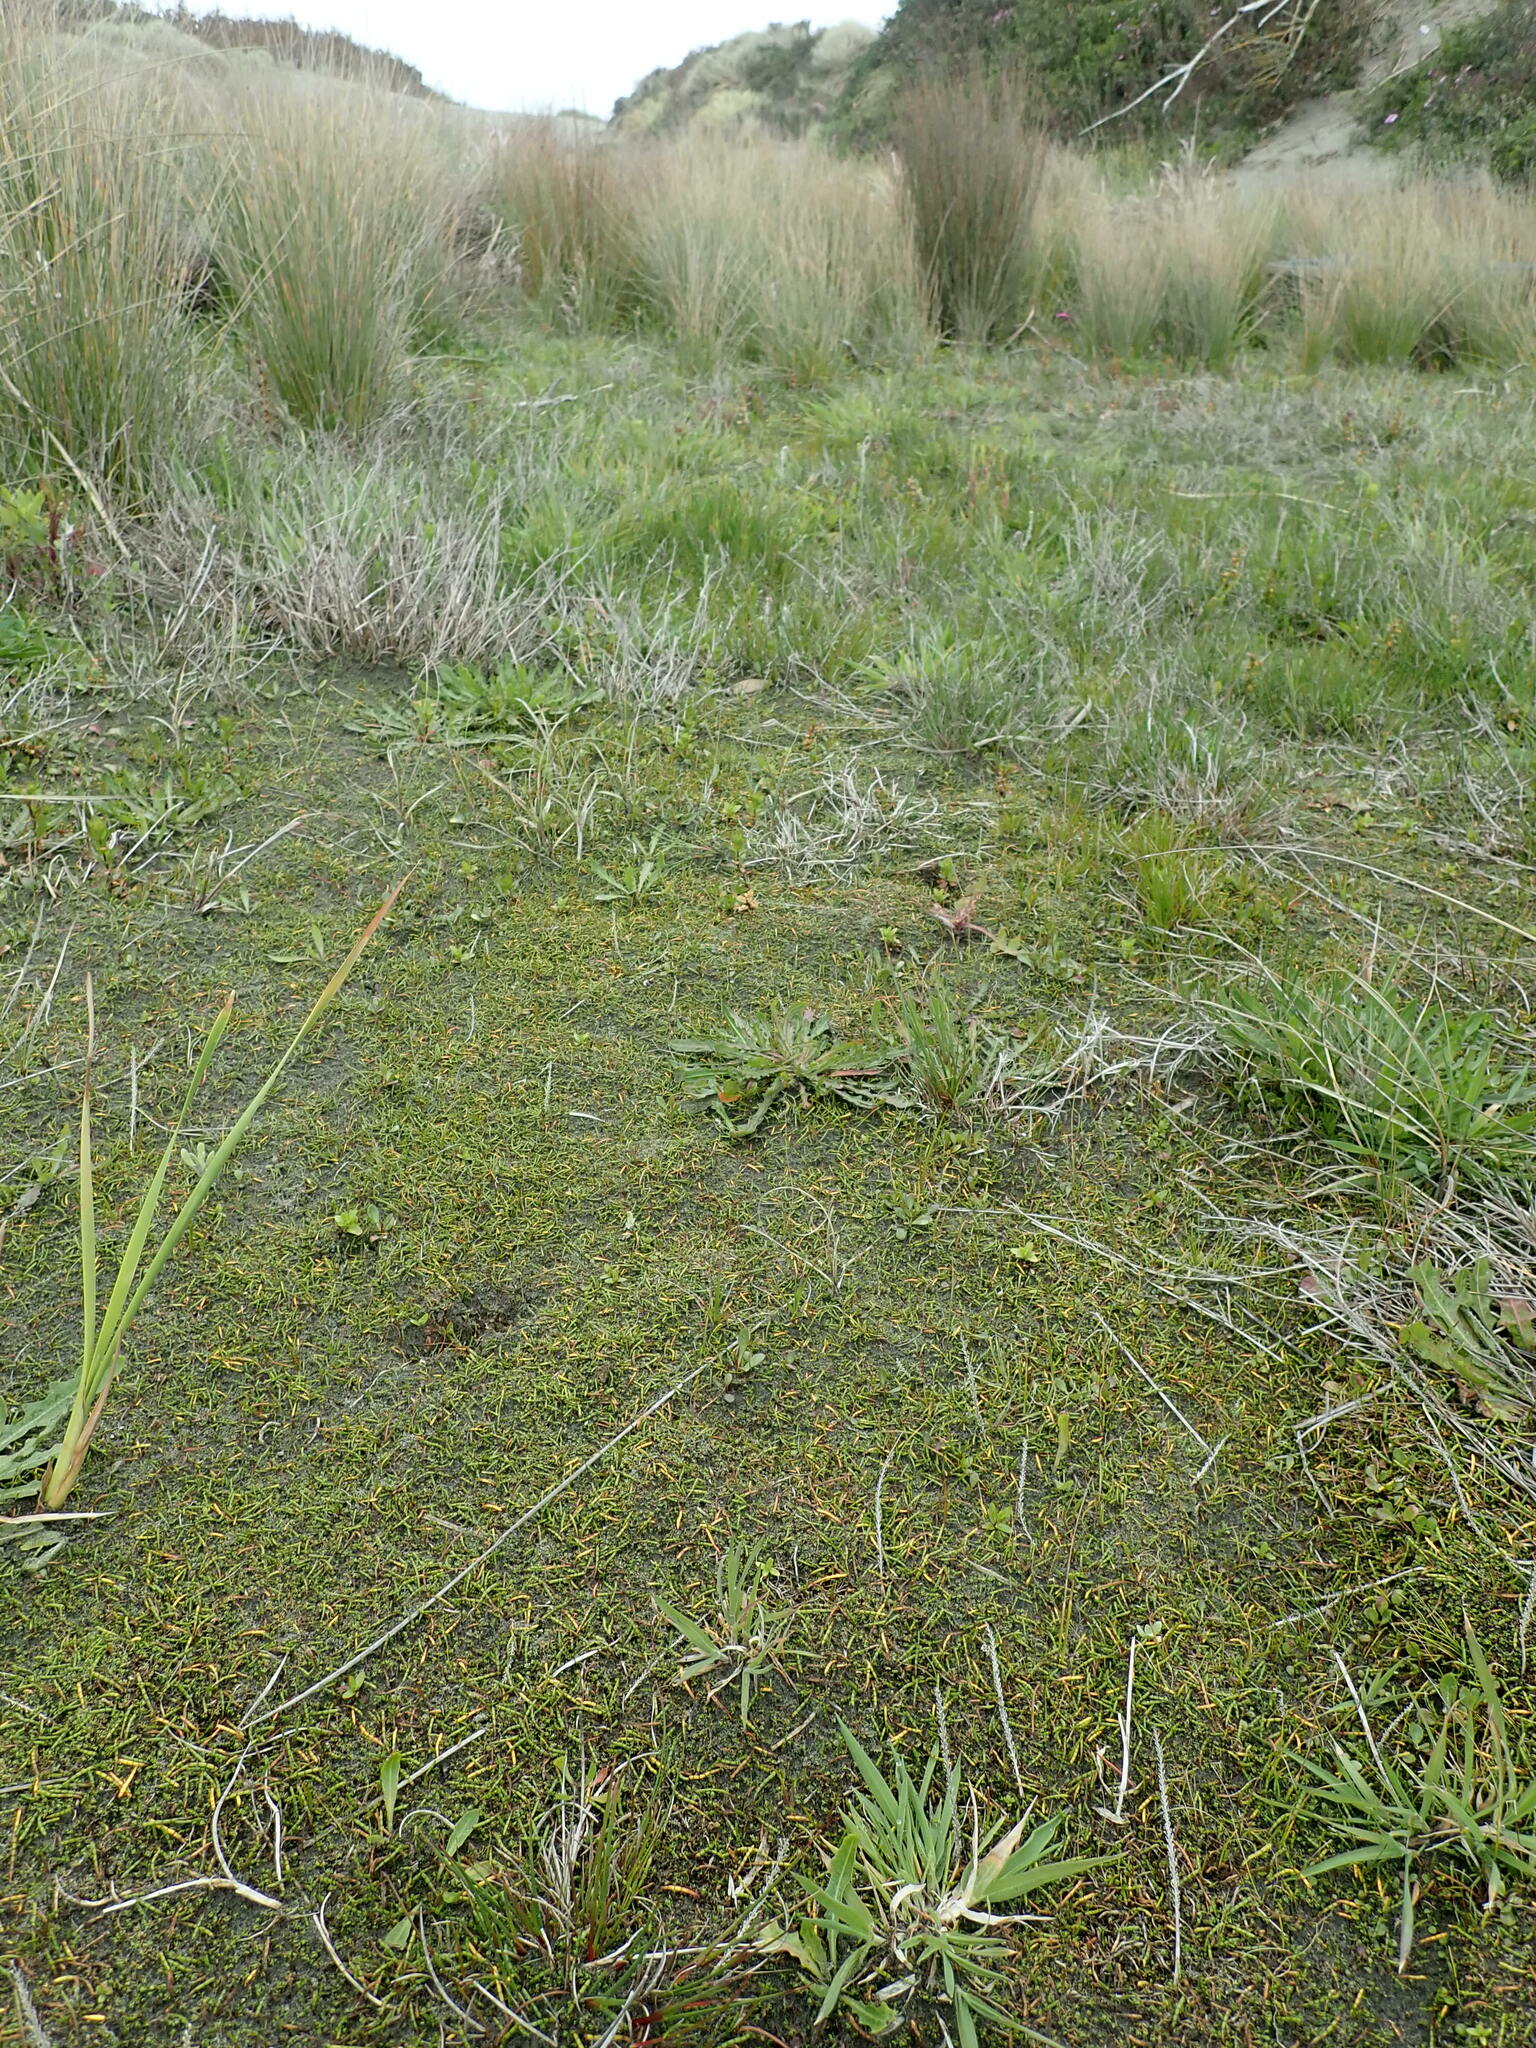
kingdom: Plantae
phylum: Tracheophyta
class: Magnoliopsida
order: Apiales
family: Apiaceae
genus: Lilaeopsis
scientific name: Lilaeopsis novae-zelandiae
